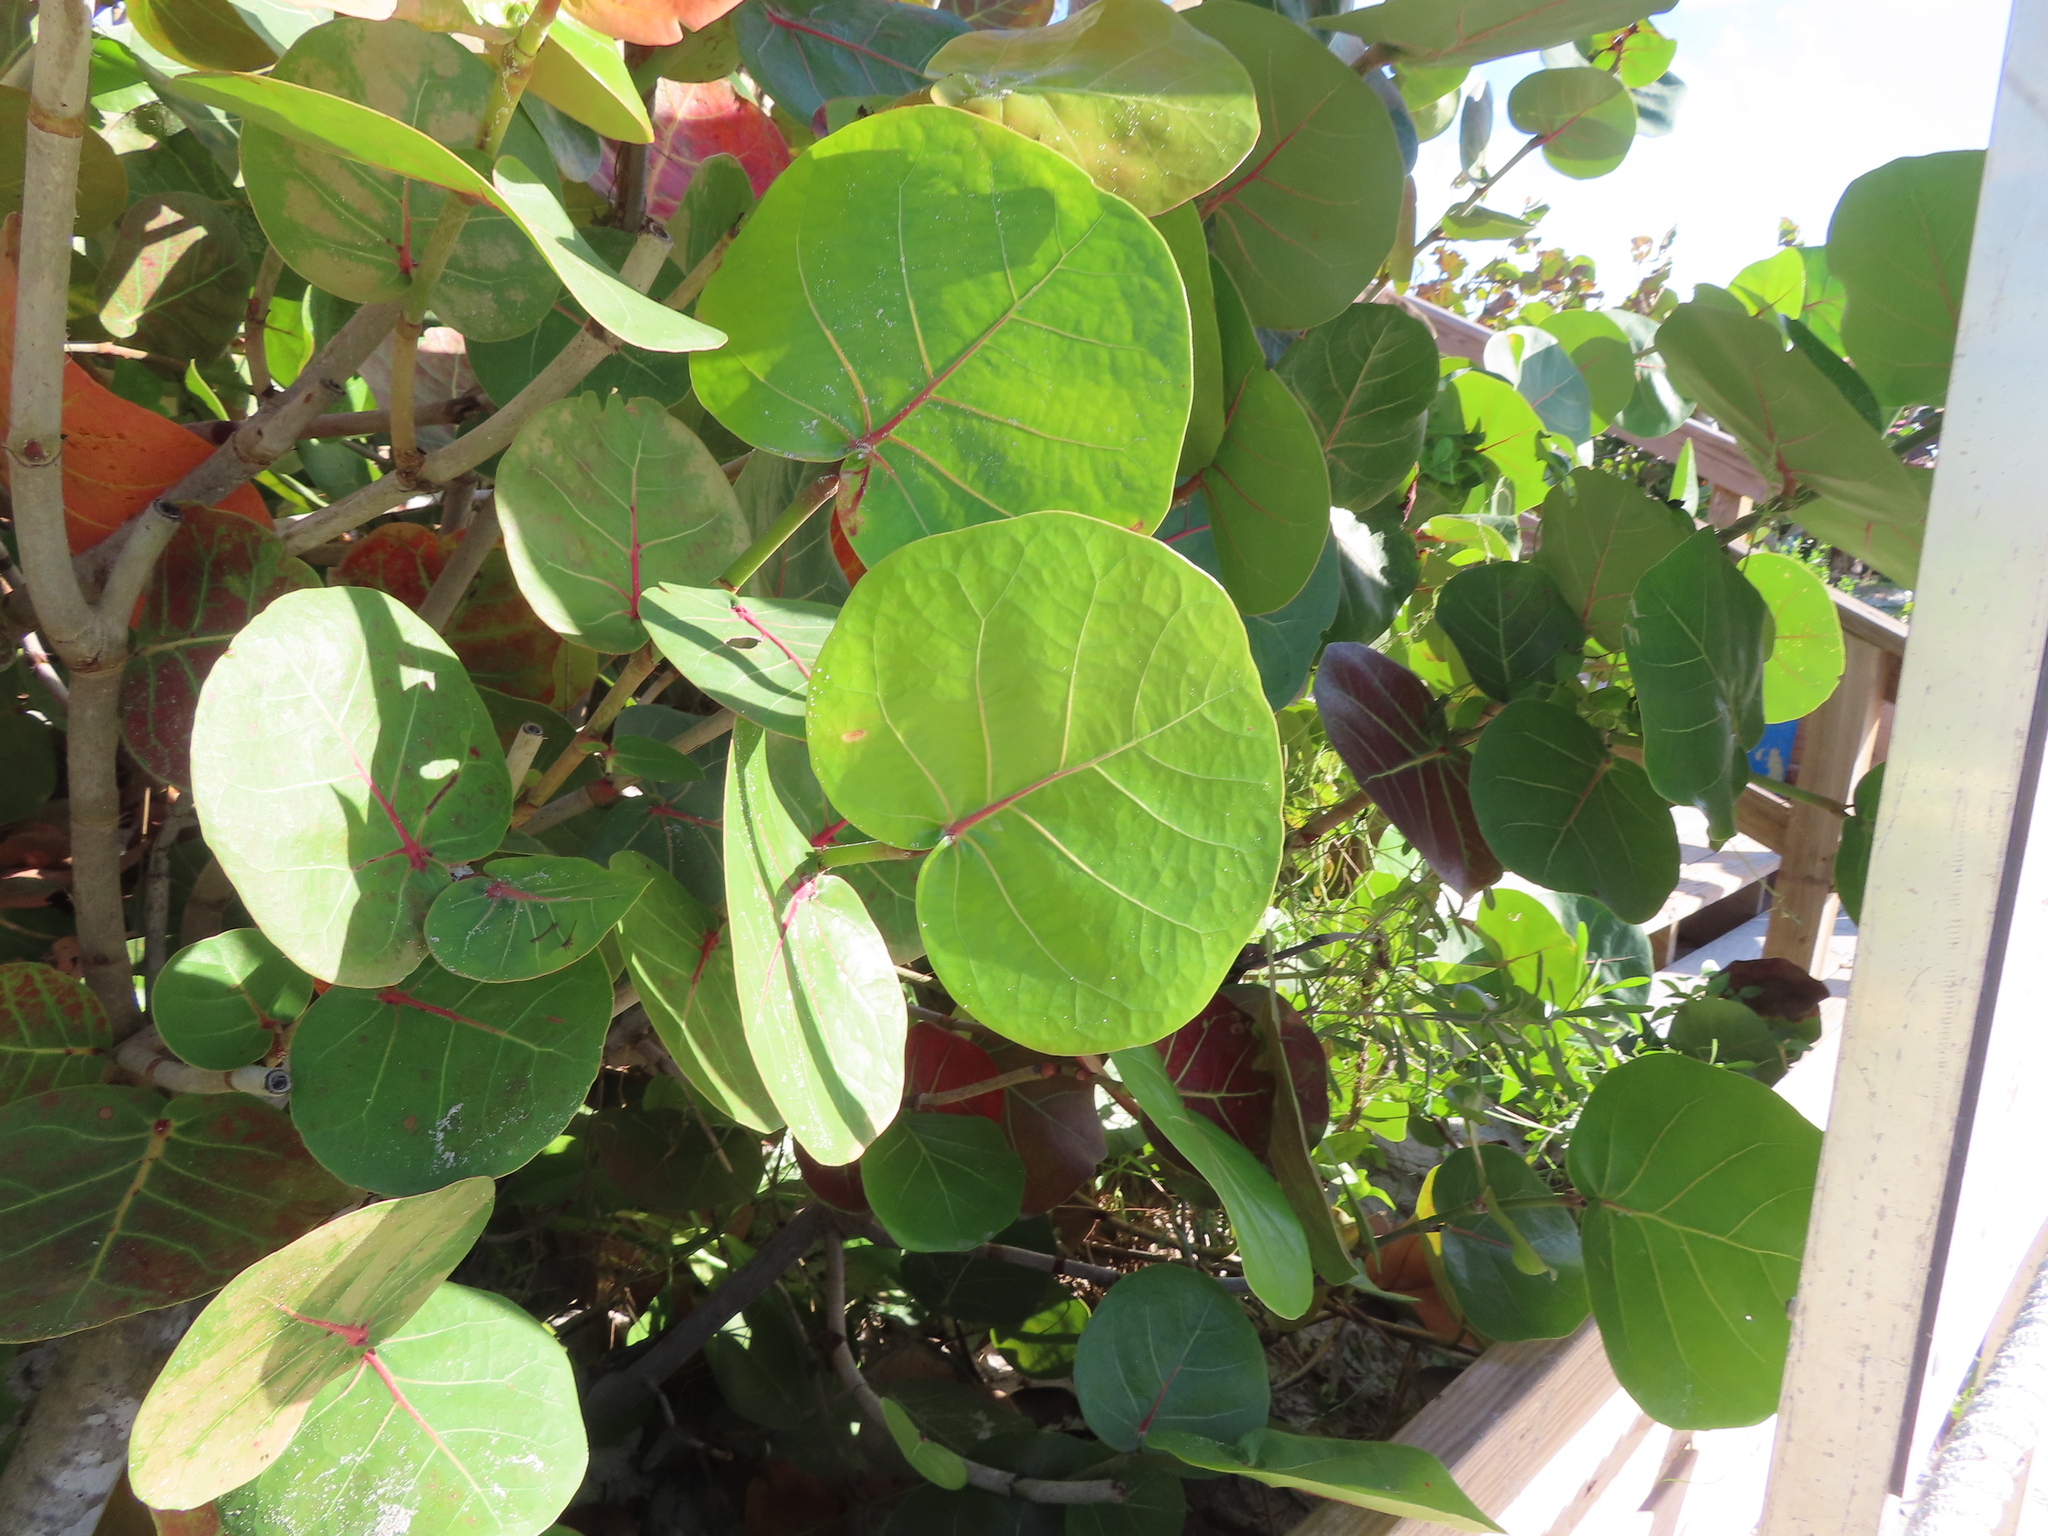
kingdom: Plantae
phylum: Tracheophyta
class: Magnoliopsida
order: Caryophyllales
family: Polygonaceae
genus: Coccoloba
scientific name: Coccoloba uvifera
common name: Seagrape
